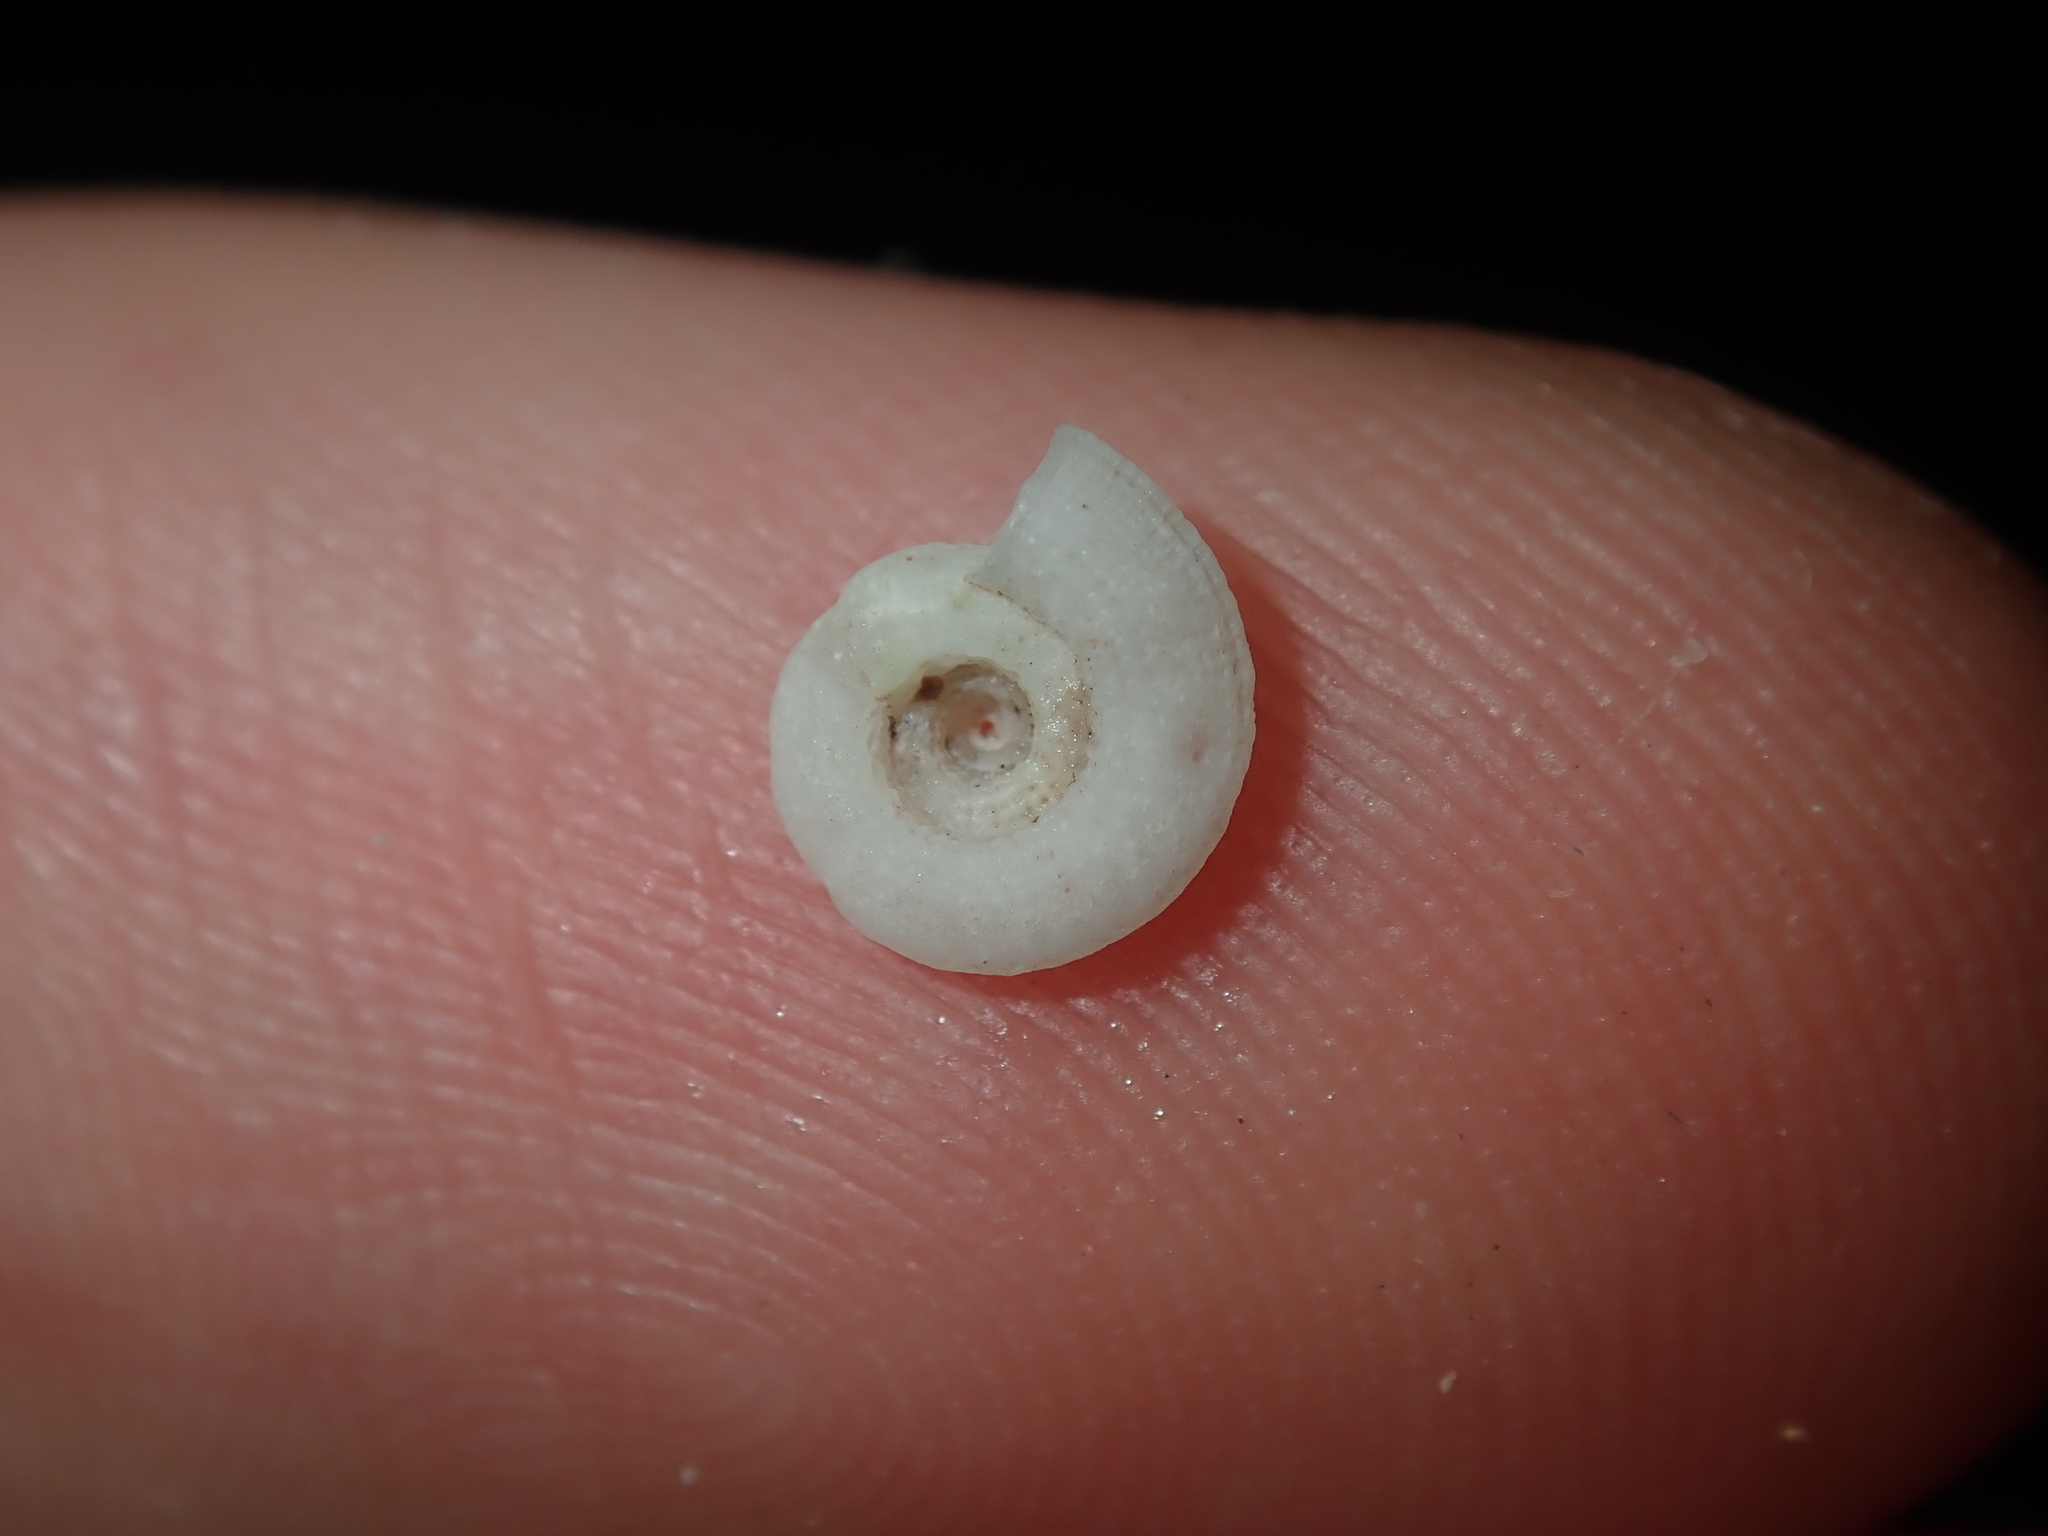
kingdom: Animalia
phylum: Mollusca
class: Gastropoda
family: Architectonicidae
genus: Pseudotorinia
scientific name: Pseudotorinia delectabilis
